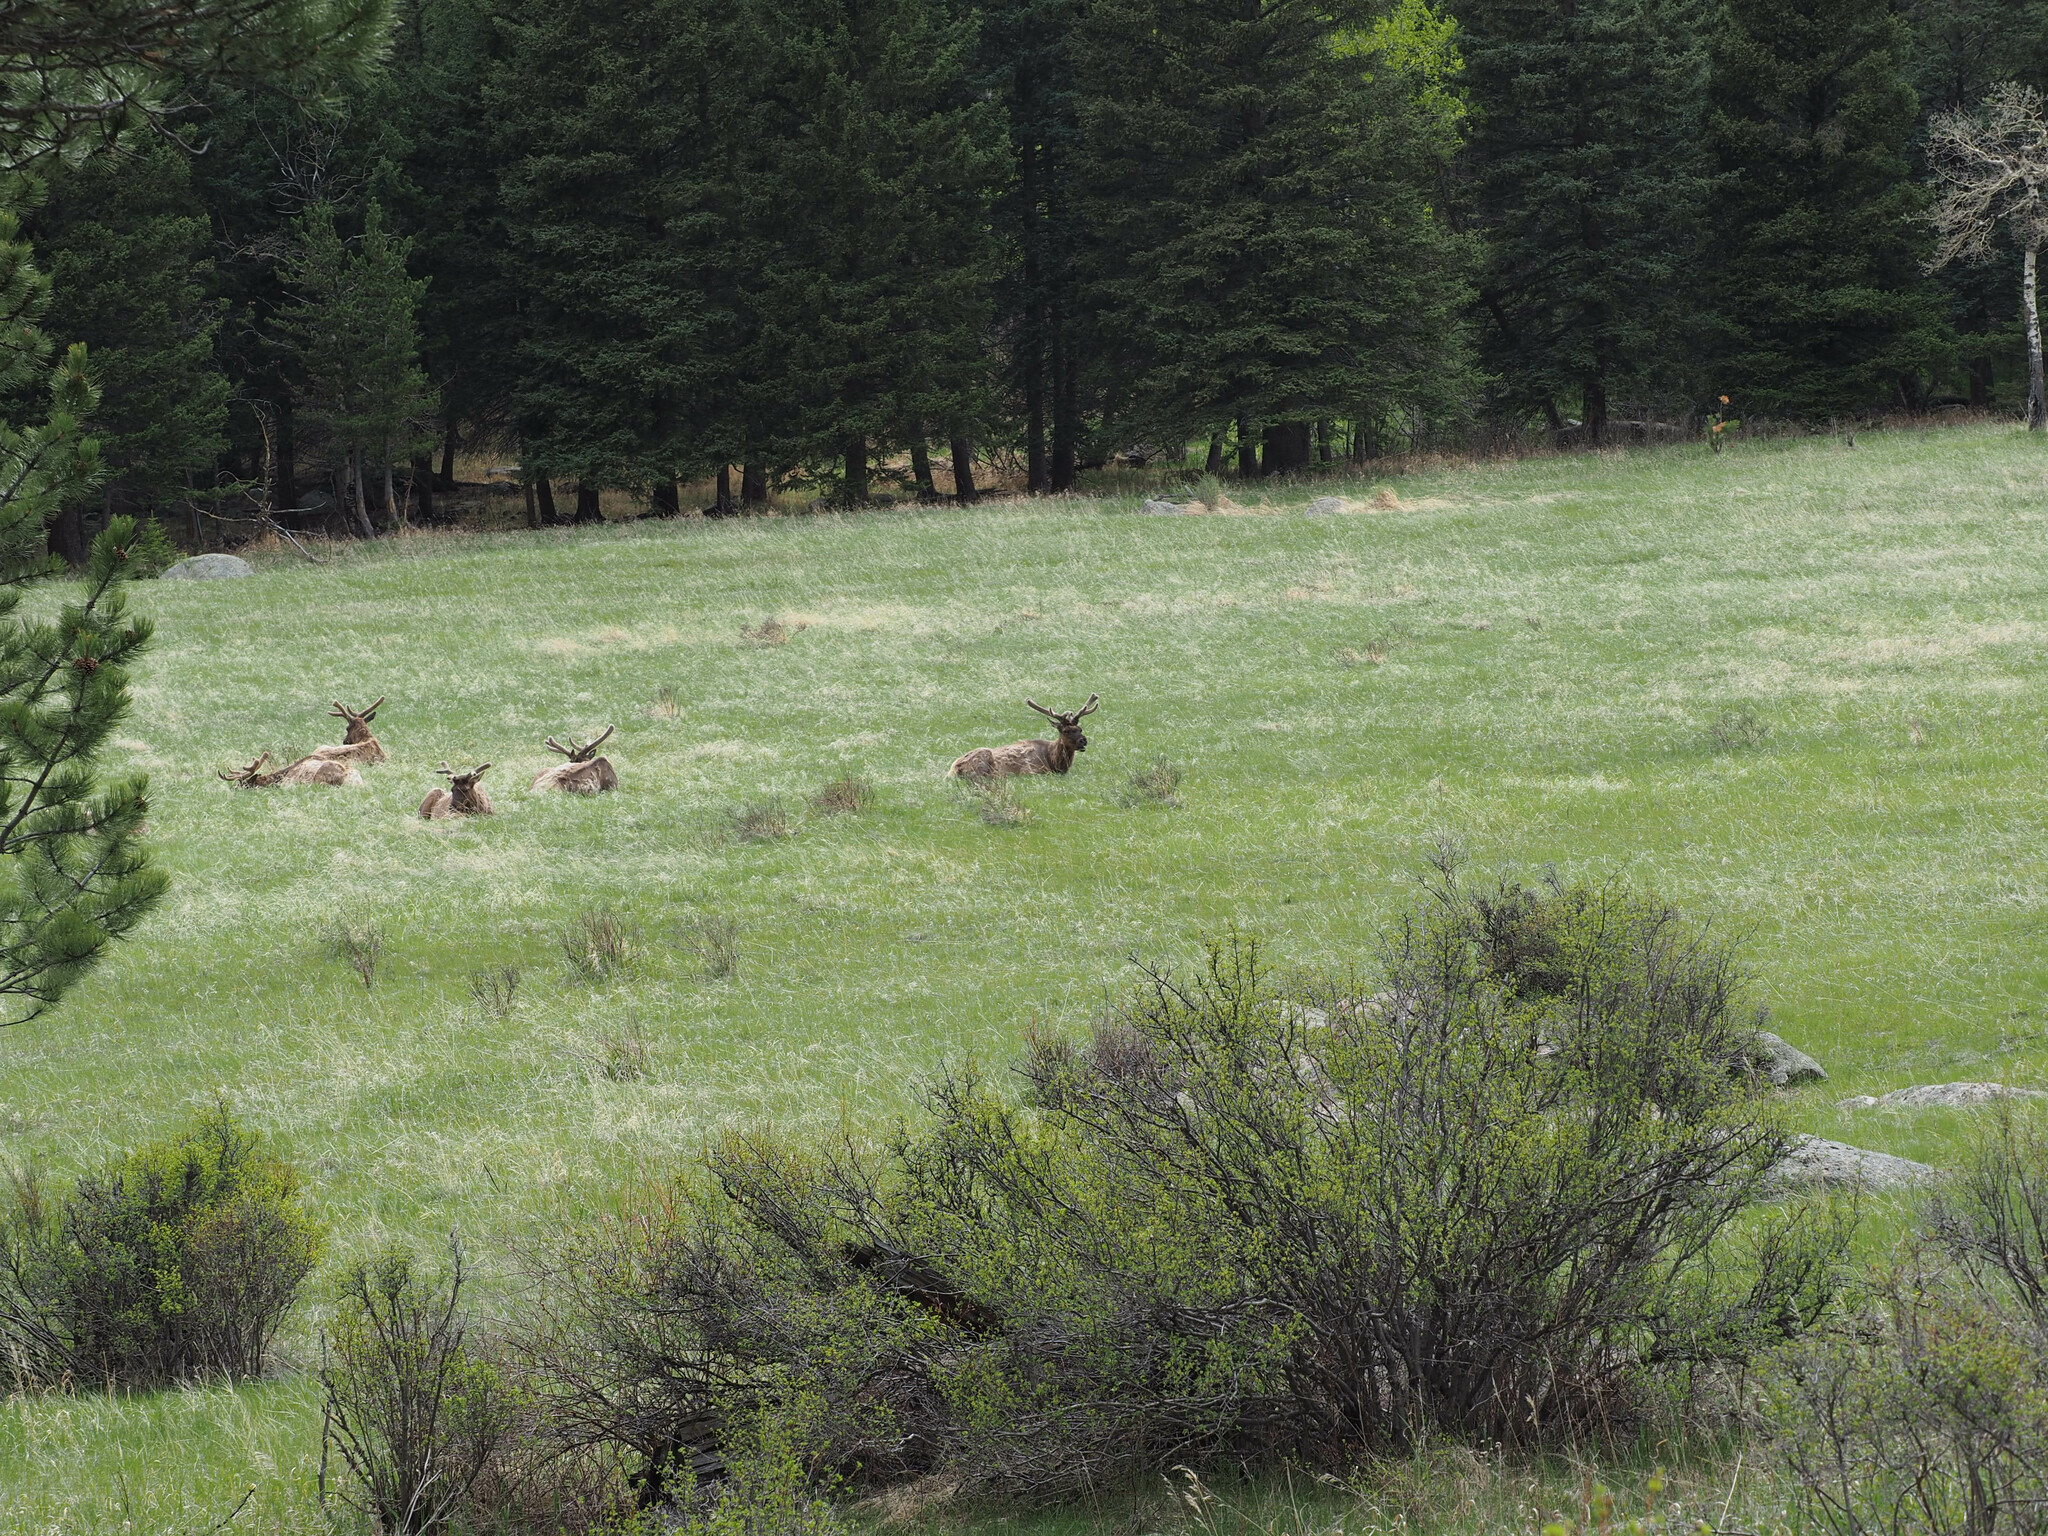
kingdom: Animalia
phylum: Chordata
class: Mammalia
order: Artiodactyla
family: Cervidae
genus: Cervus
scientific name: Cervus elaphus
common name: Red deer
